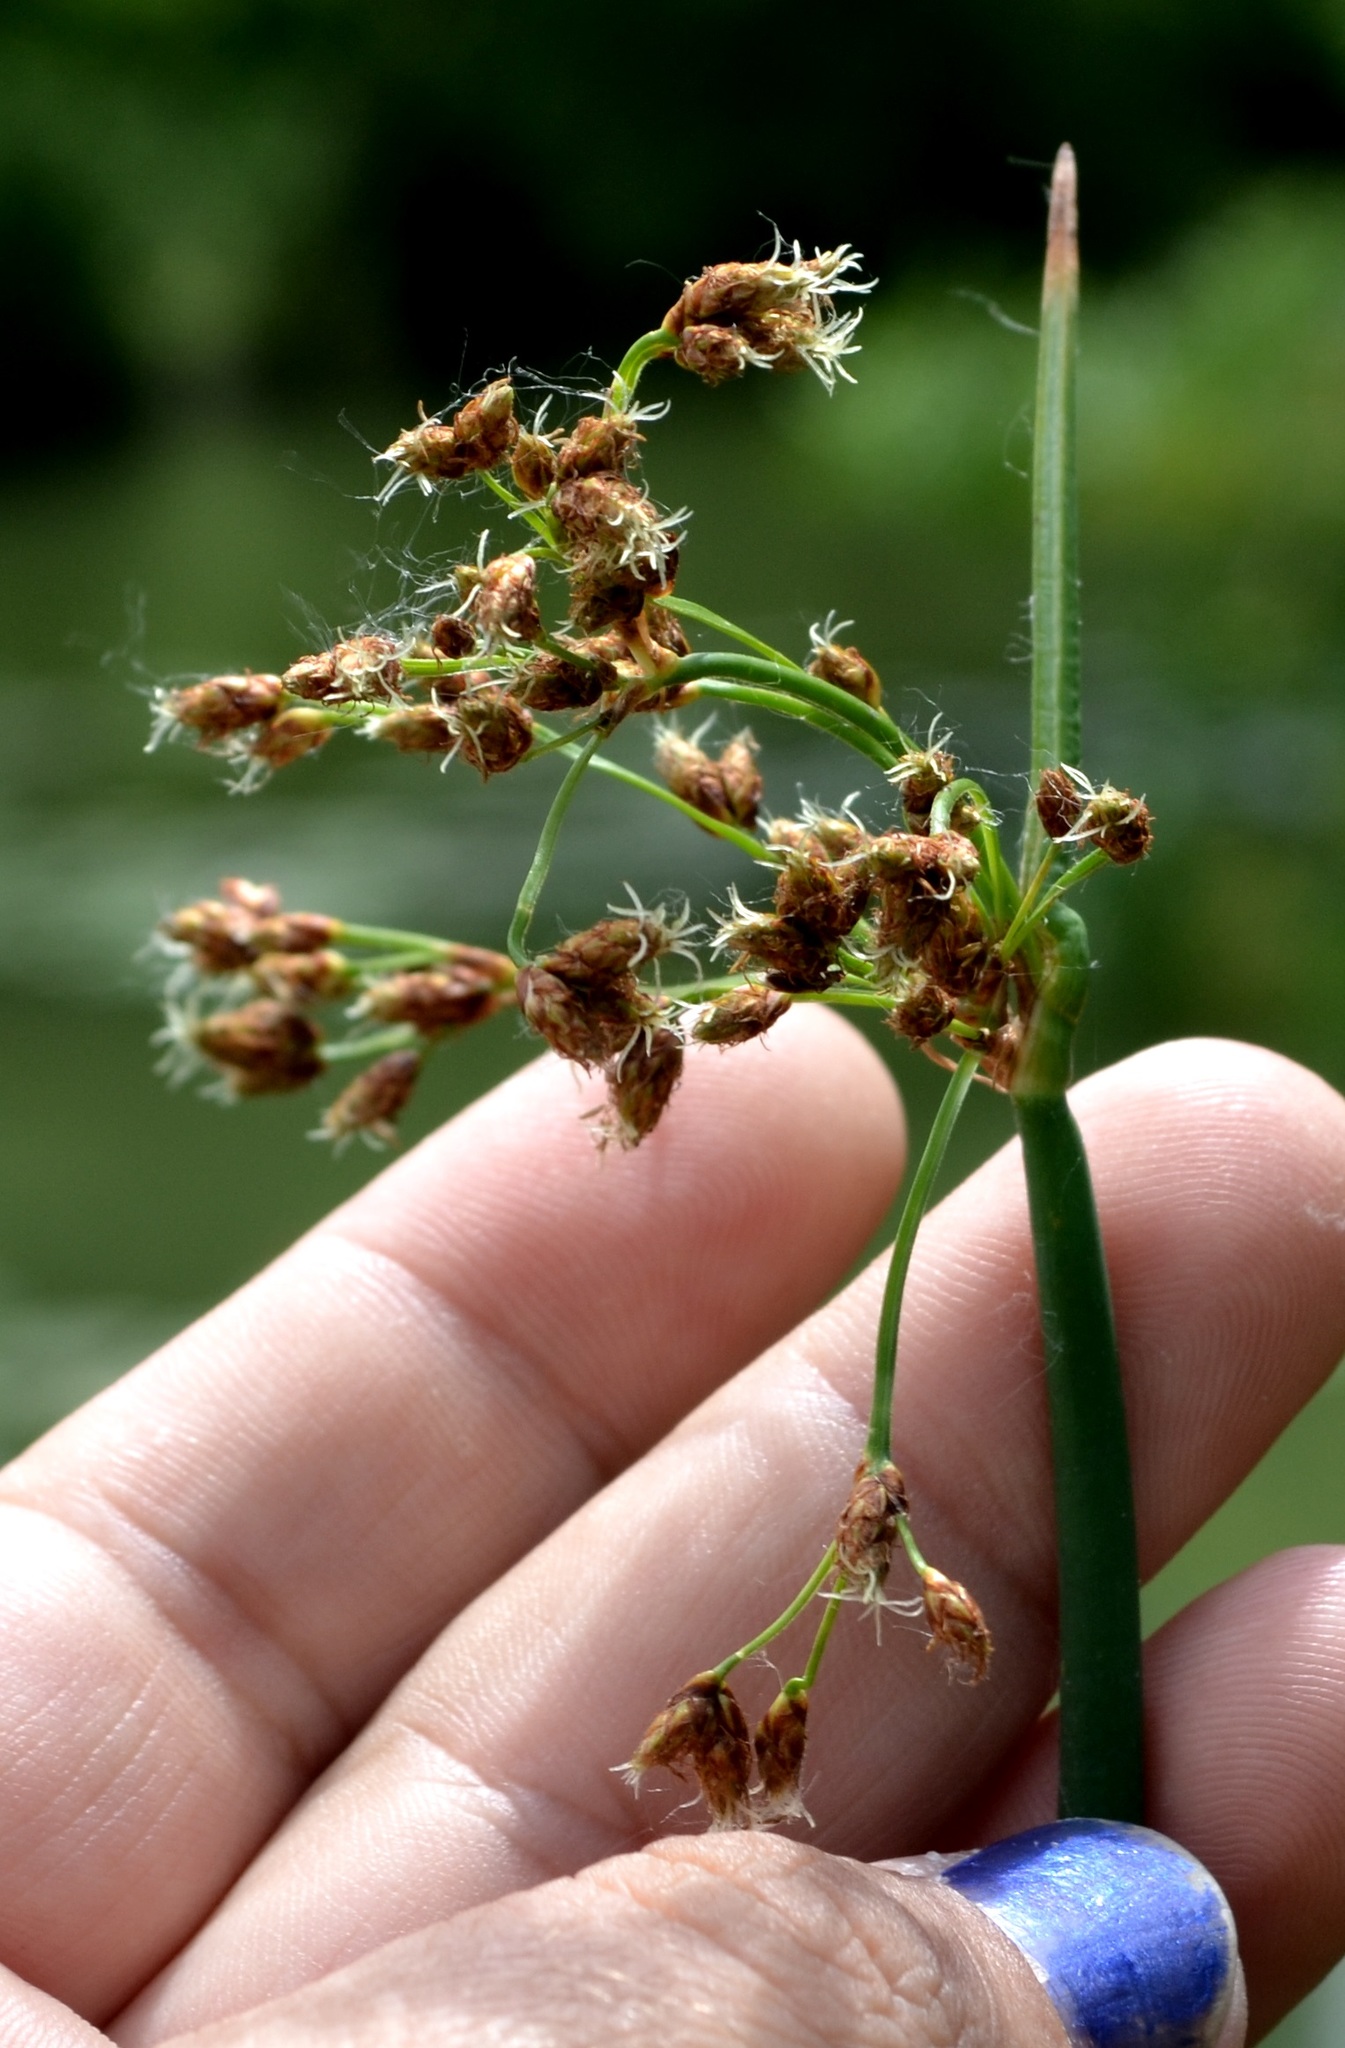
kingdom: Plantae
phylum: Tracheophyta
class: Liliopsida
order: Poales
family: Cyperaceae
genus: Schoenoplectus
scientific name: Schoenoplectus tabernaemontani
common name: Grey club-rush
